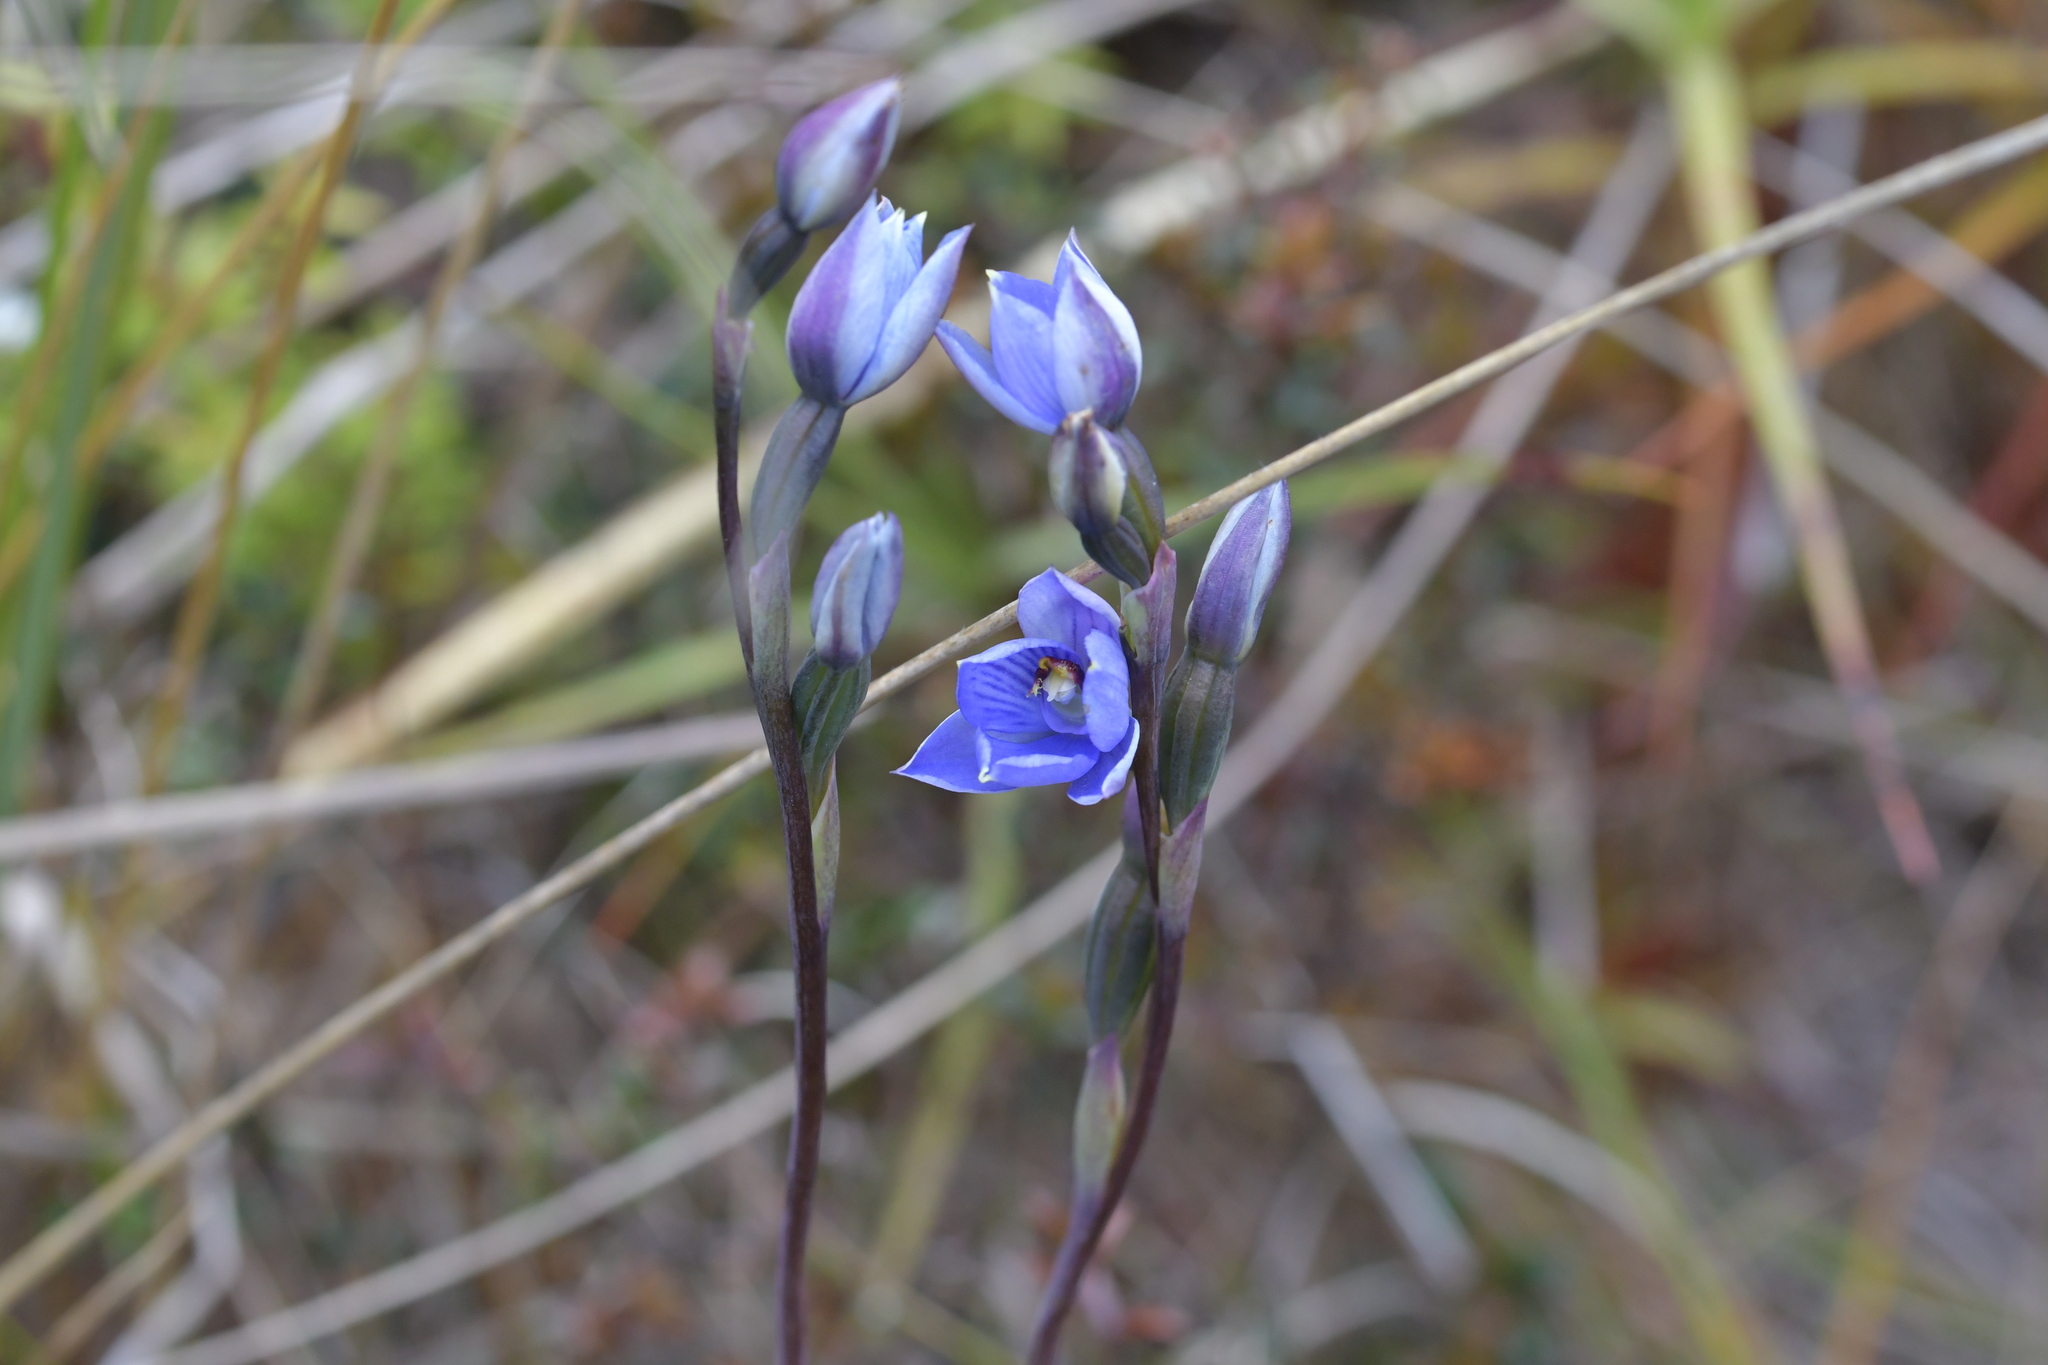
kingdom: Plantae
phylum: Tracheophyta
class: Liliopsida
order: Asparagales
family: Orchidaceae
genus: Thelymitra
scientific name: Thelymitra pulchella
